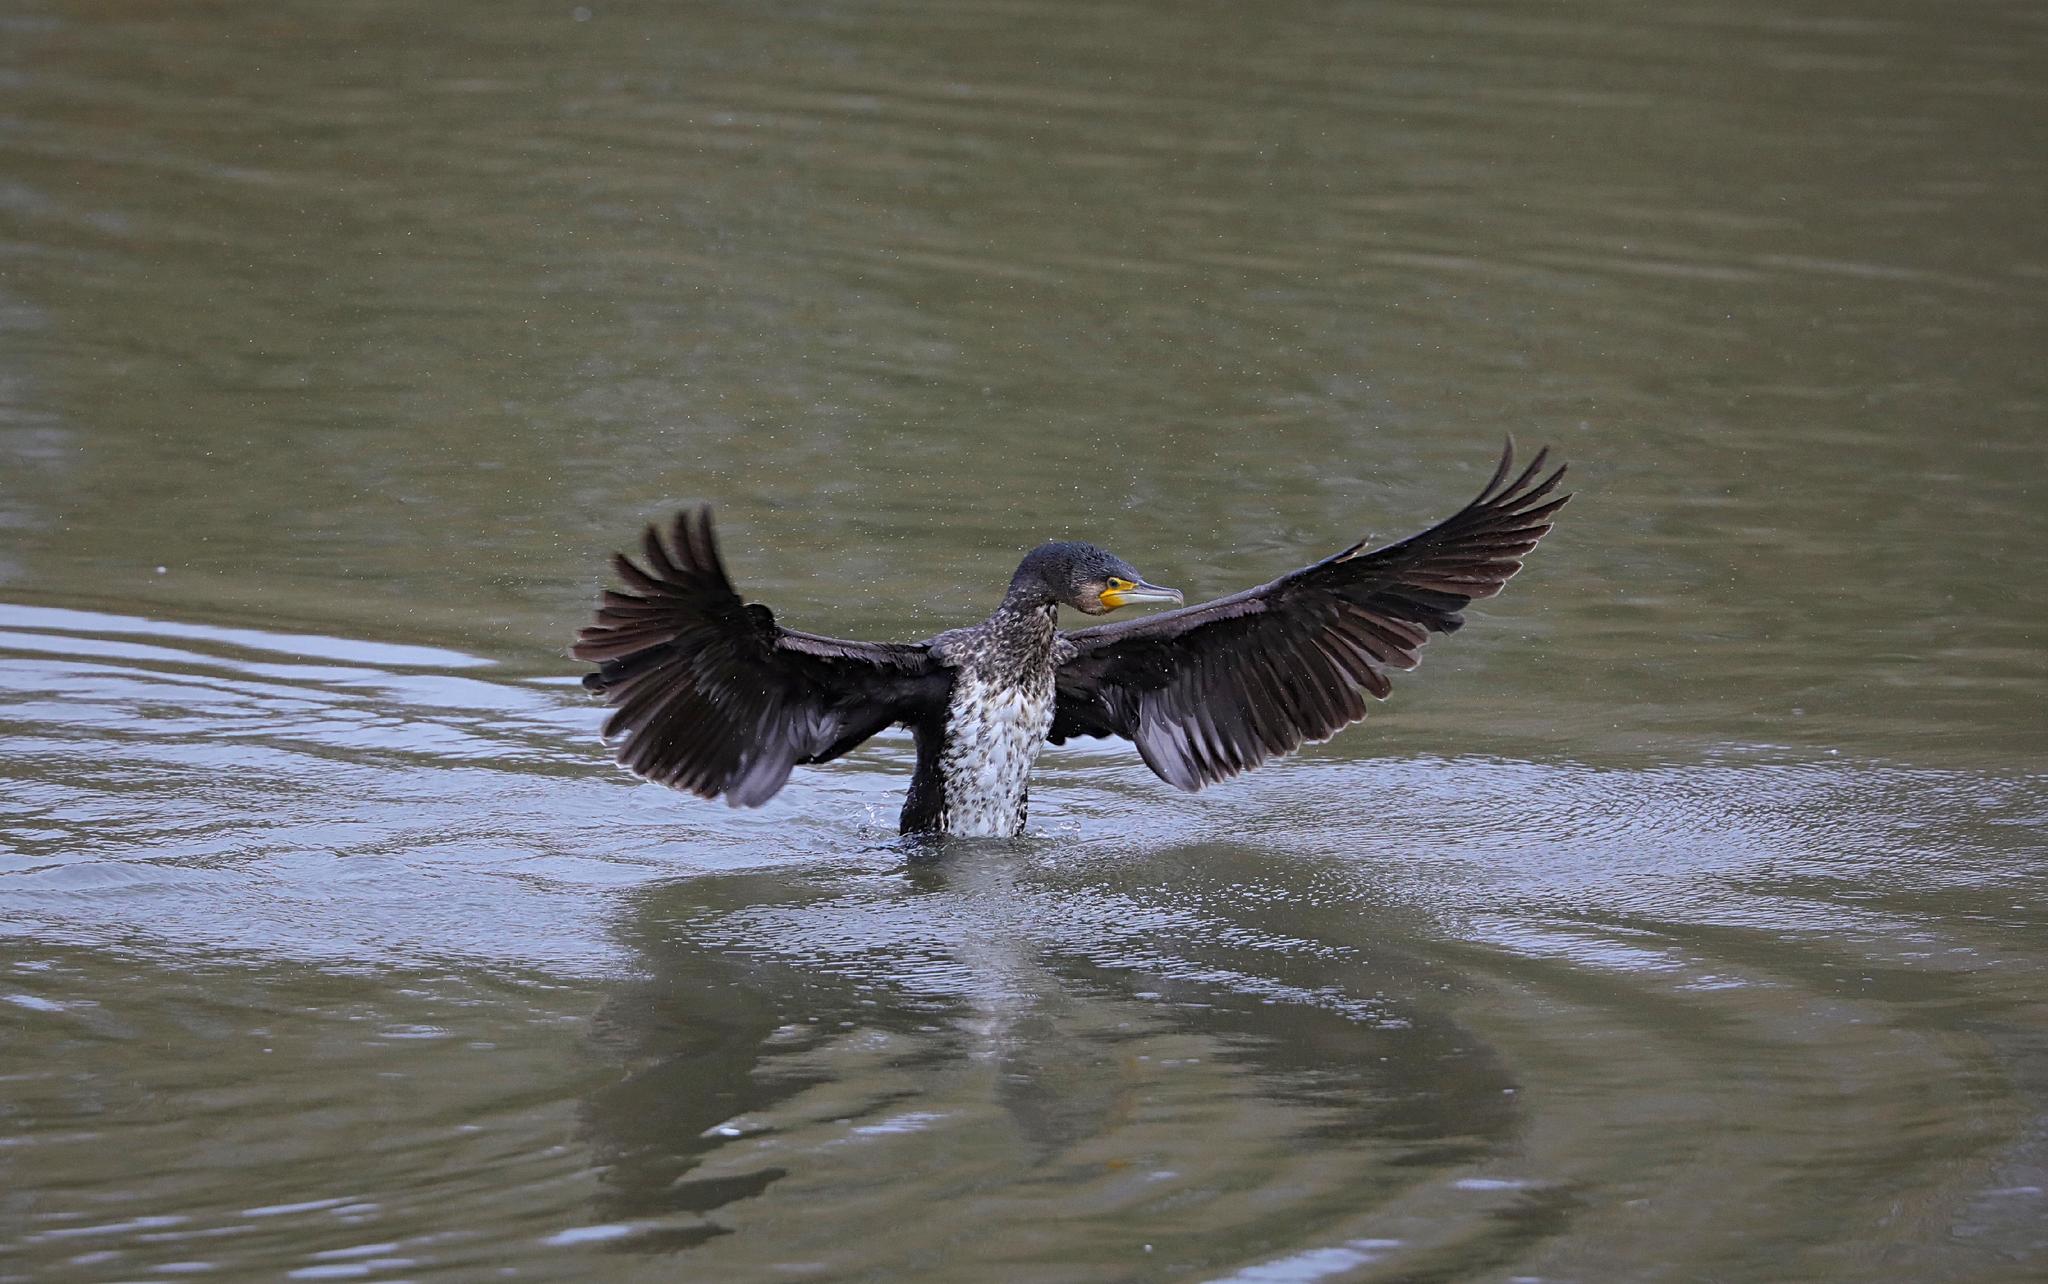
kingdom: Animalia
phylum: Chordata
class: Aves
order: Suliformes
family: Phalacrocoracidae
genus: Phalacrocorax
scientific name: Phalacrocorax carbo
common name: Great cormorant
